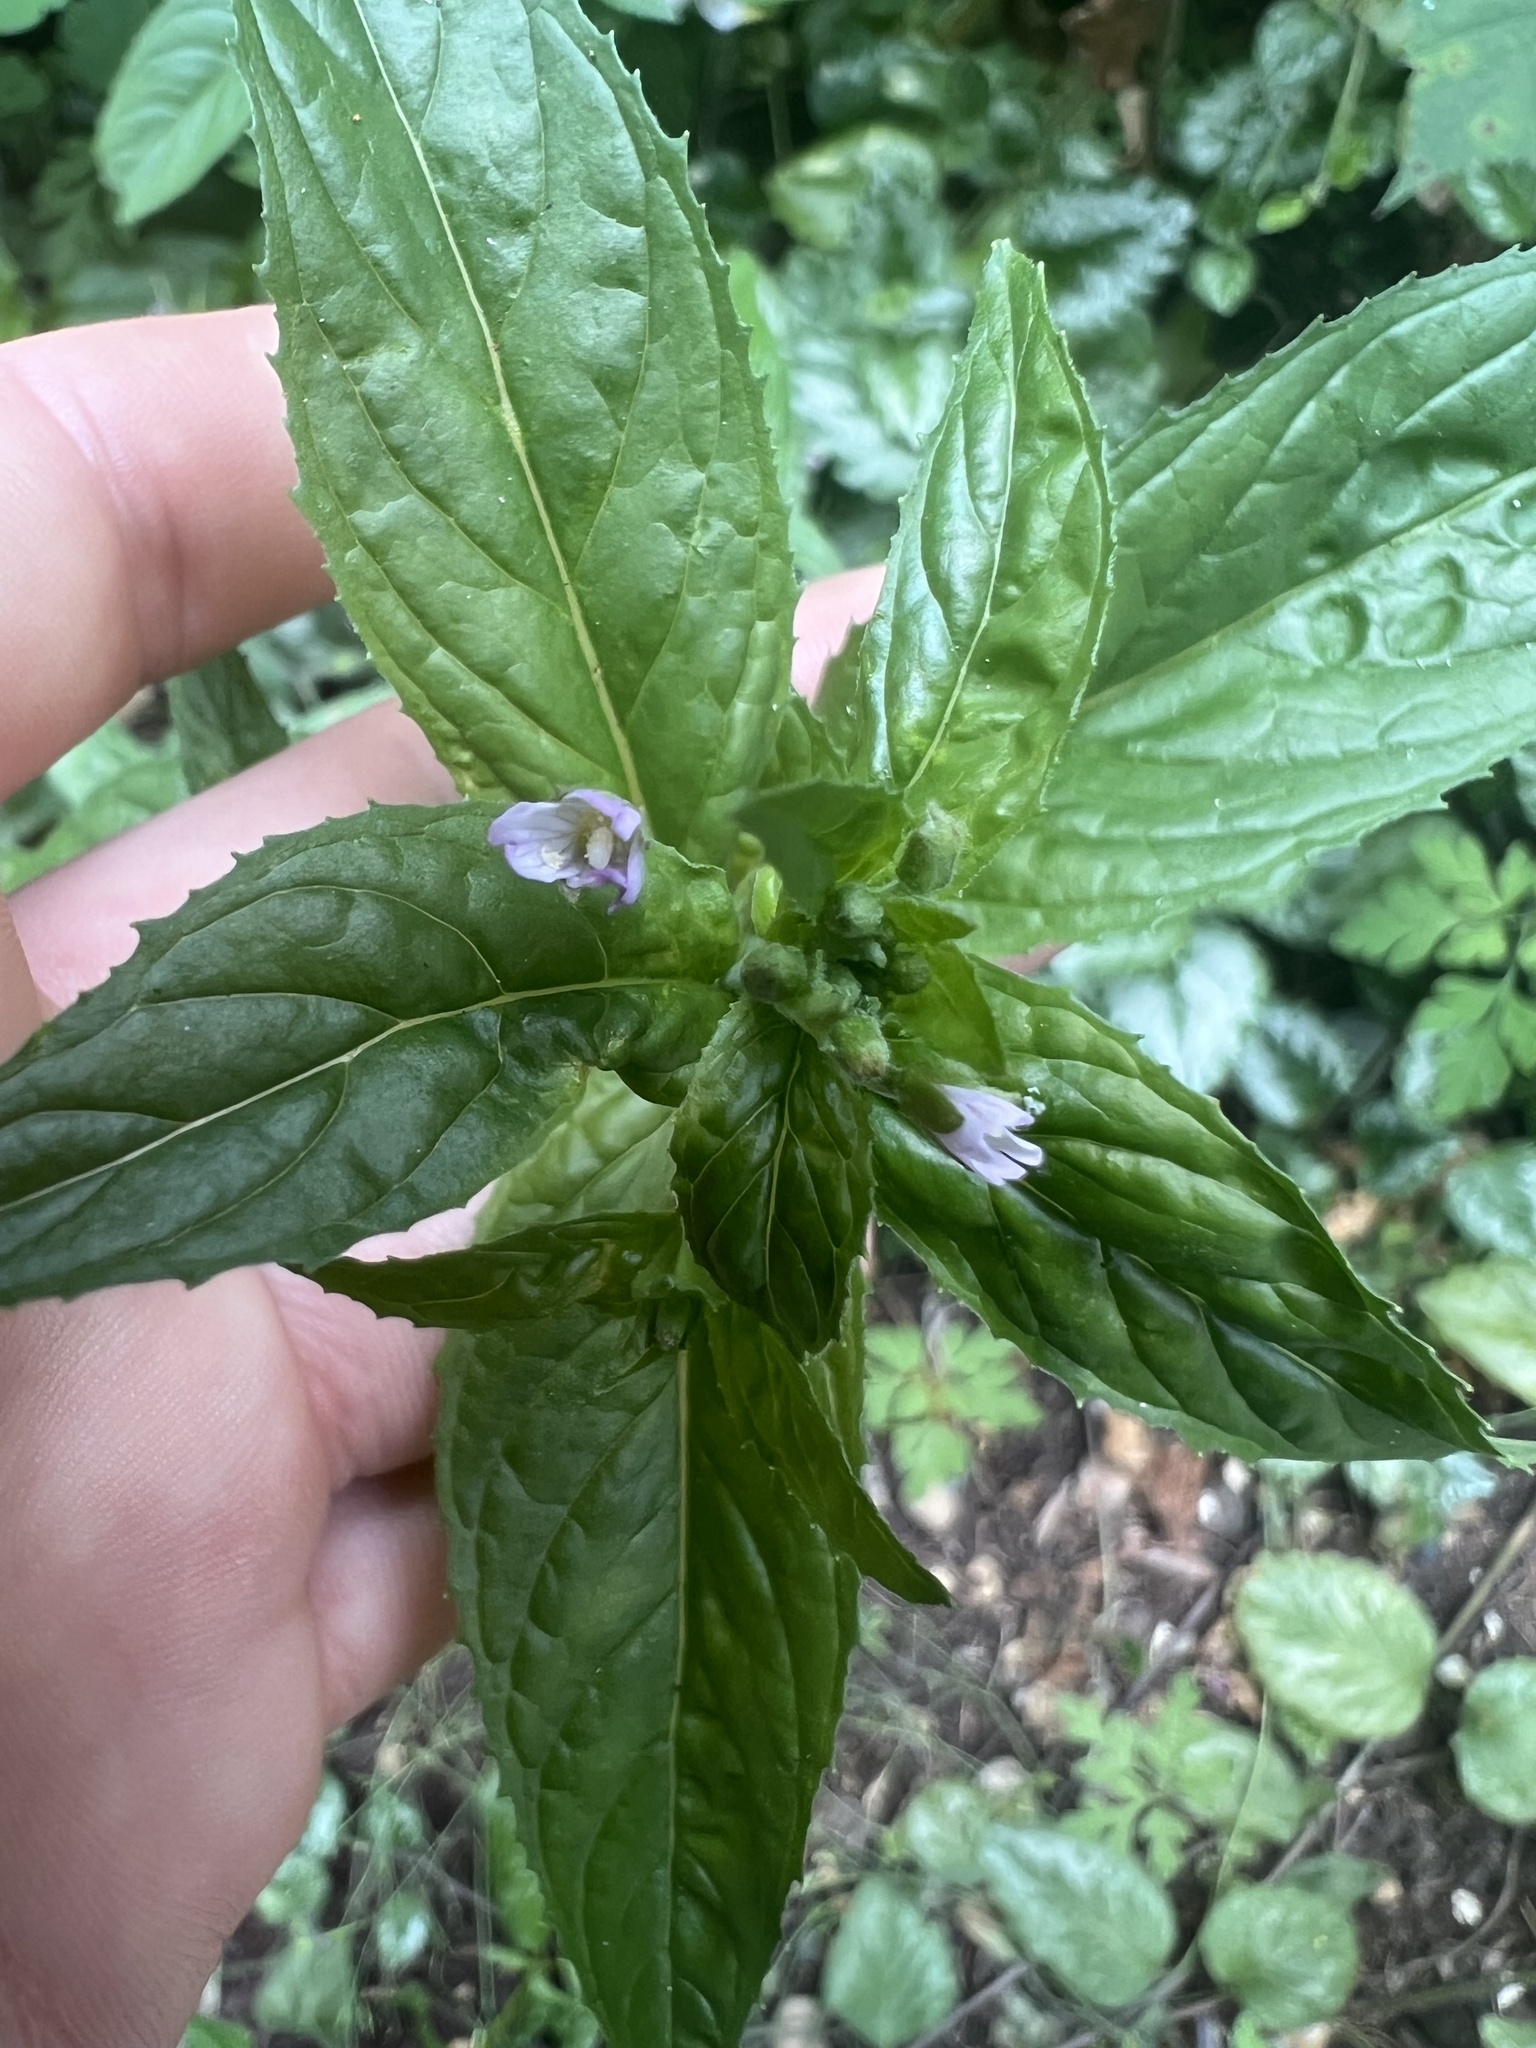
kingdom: Plantae
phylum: Tracheophyta
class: Magnoliopsida
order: Myrtales
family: Onagraceae
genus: Epilobium
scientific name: Epilobium ciliatum
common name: American willowherb
